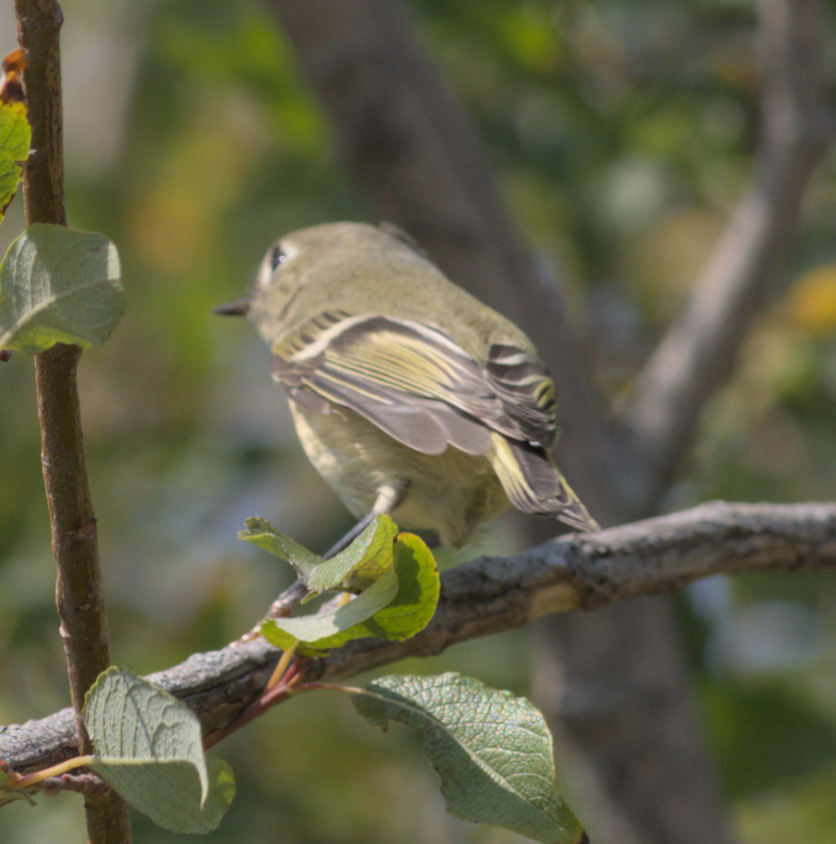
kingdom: Animalia
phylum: Chordata
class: Aves
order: Passeriformes
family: Regulidae
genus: Regulus
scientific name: Regulus calendula
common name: Ruby-crowned kinglet
